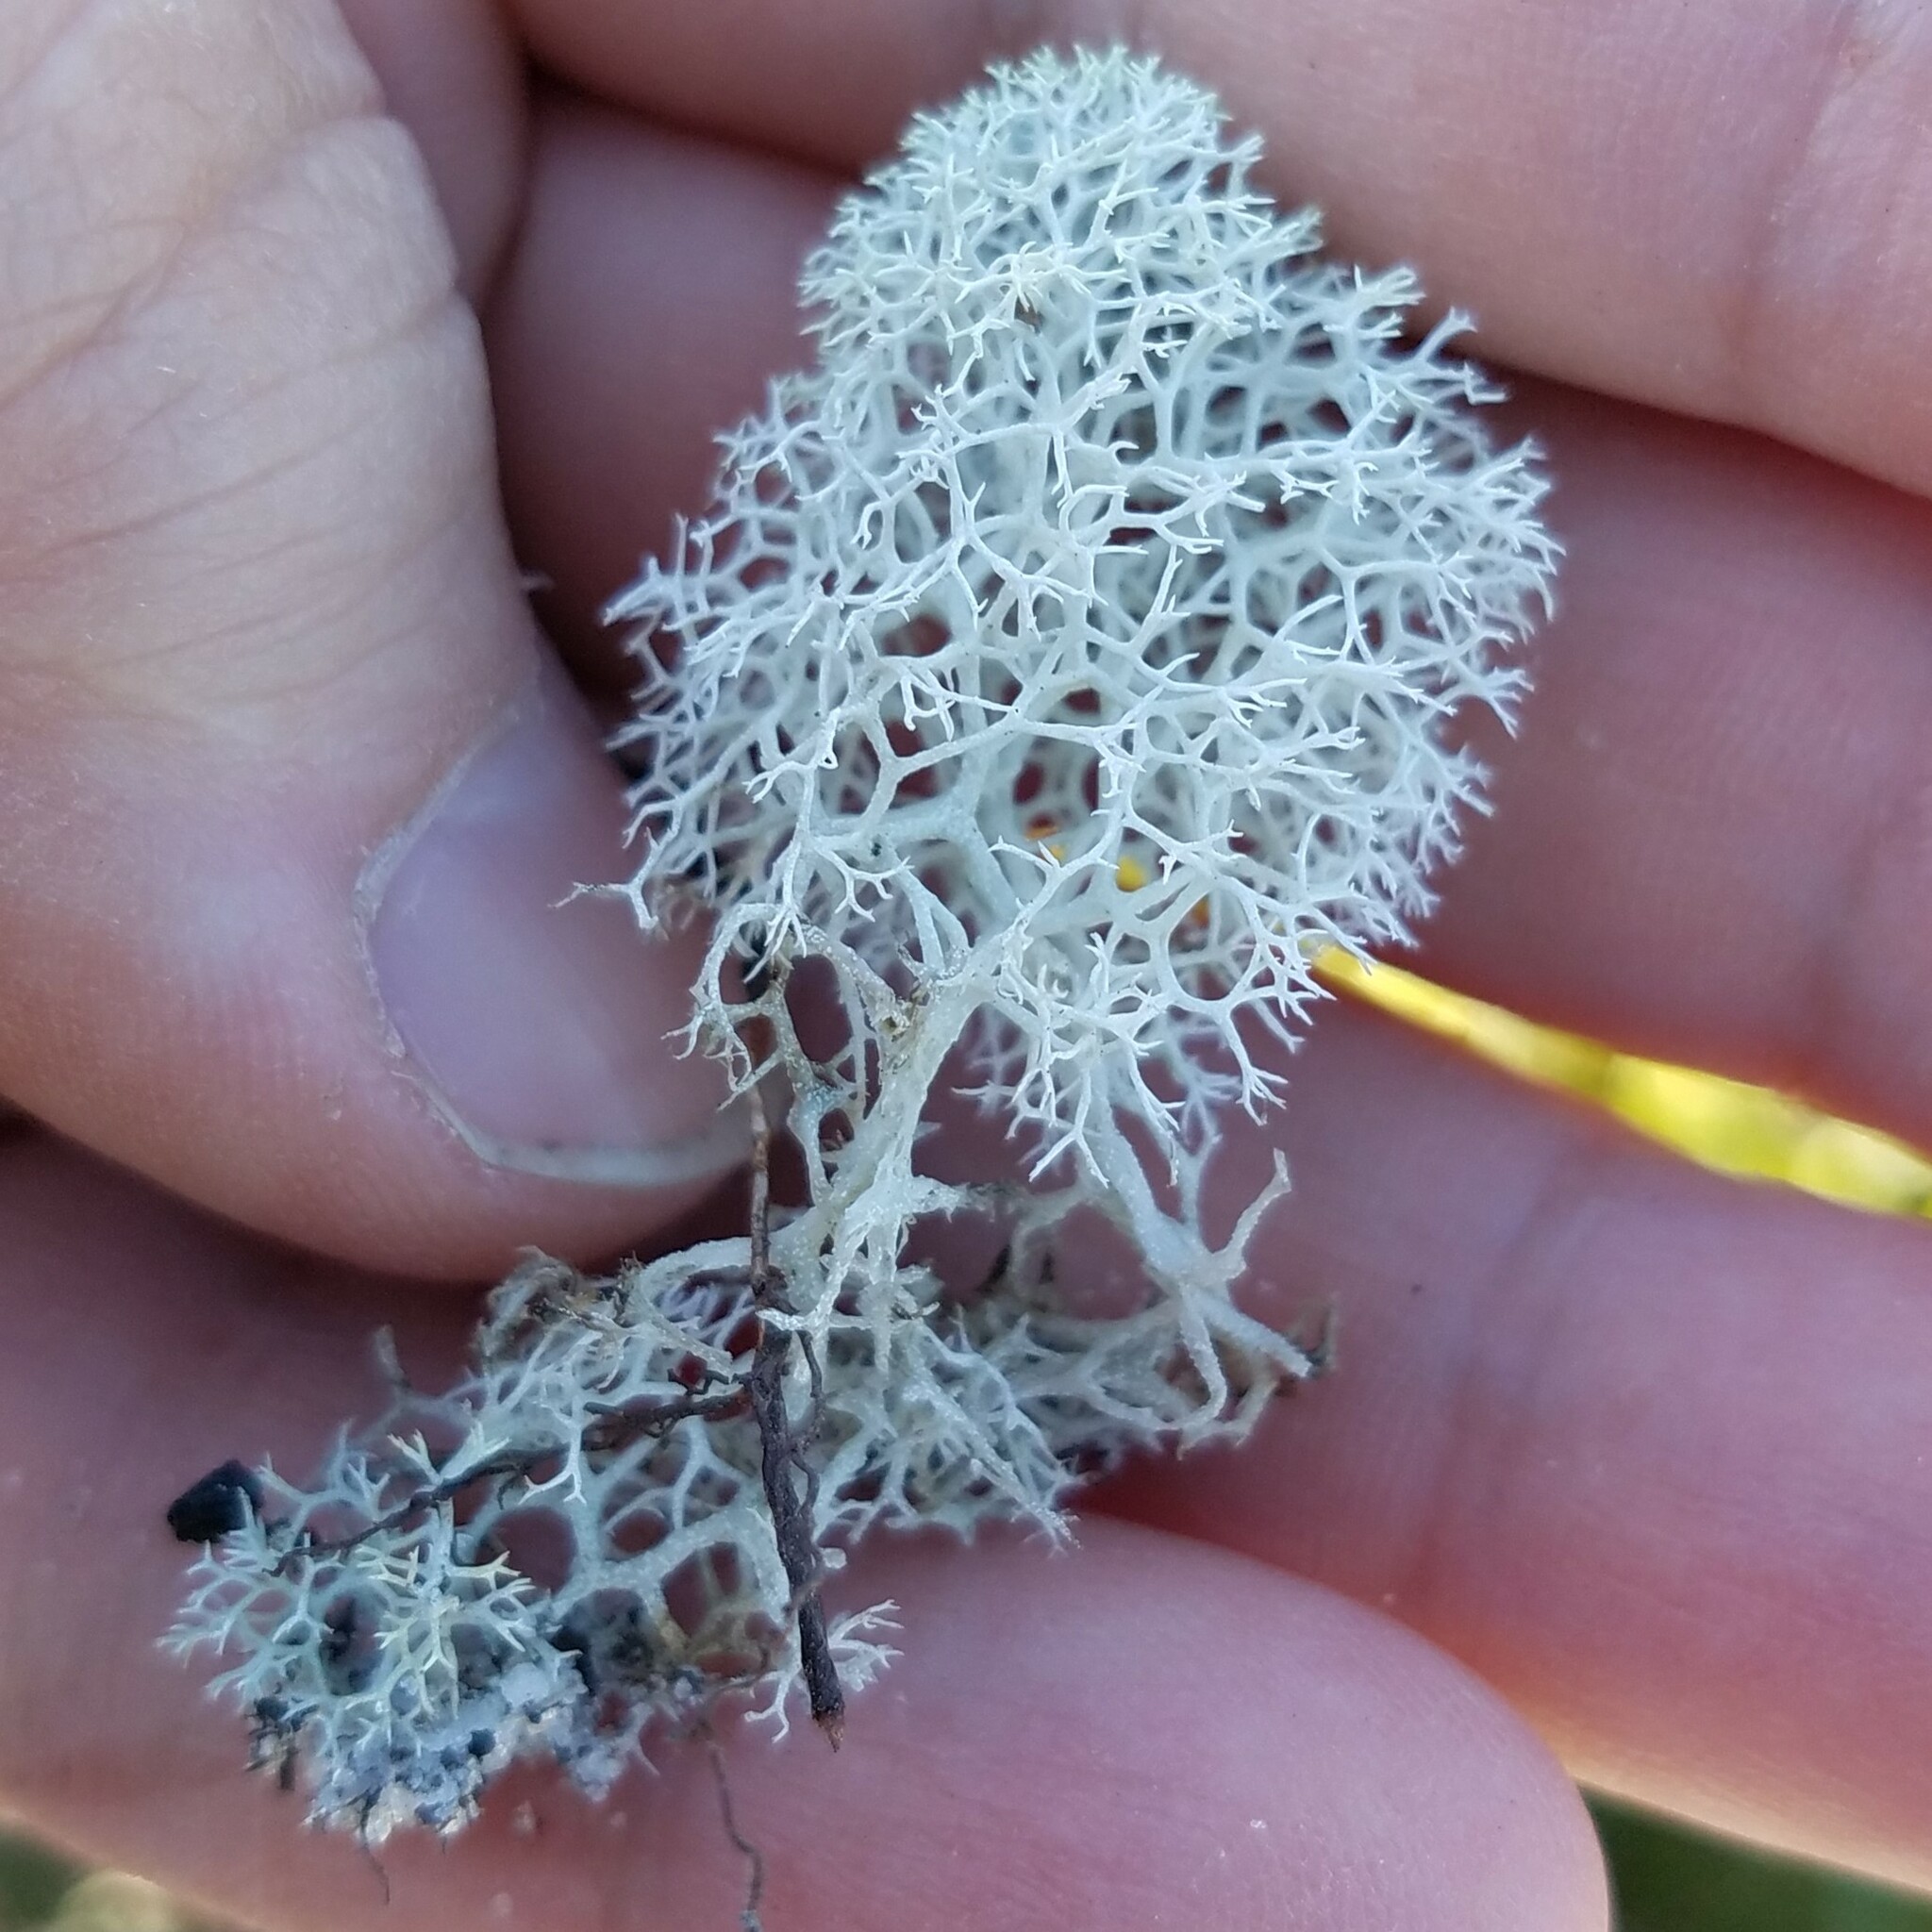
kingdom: Fungi
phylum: Ascomycota
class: Lecanoromycetes
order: Lecanorales
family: Cladoniaceae
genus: Cladonia
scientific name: Cladonia evansii
